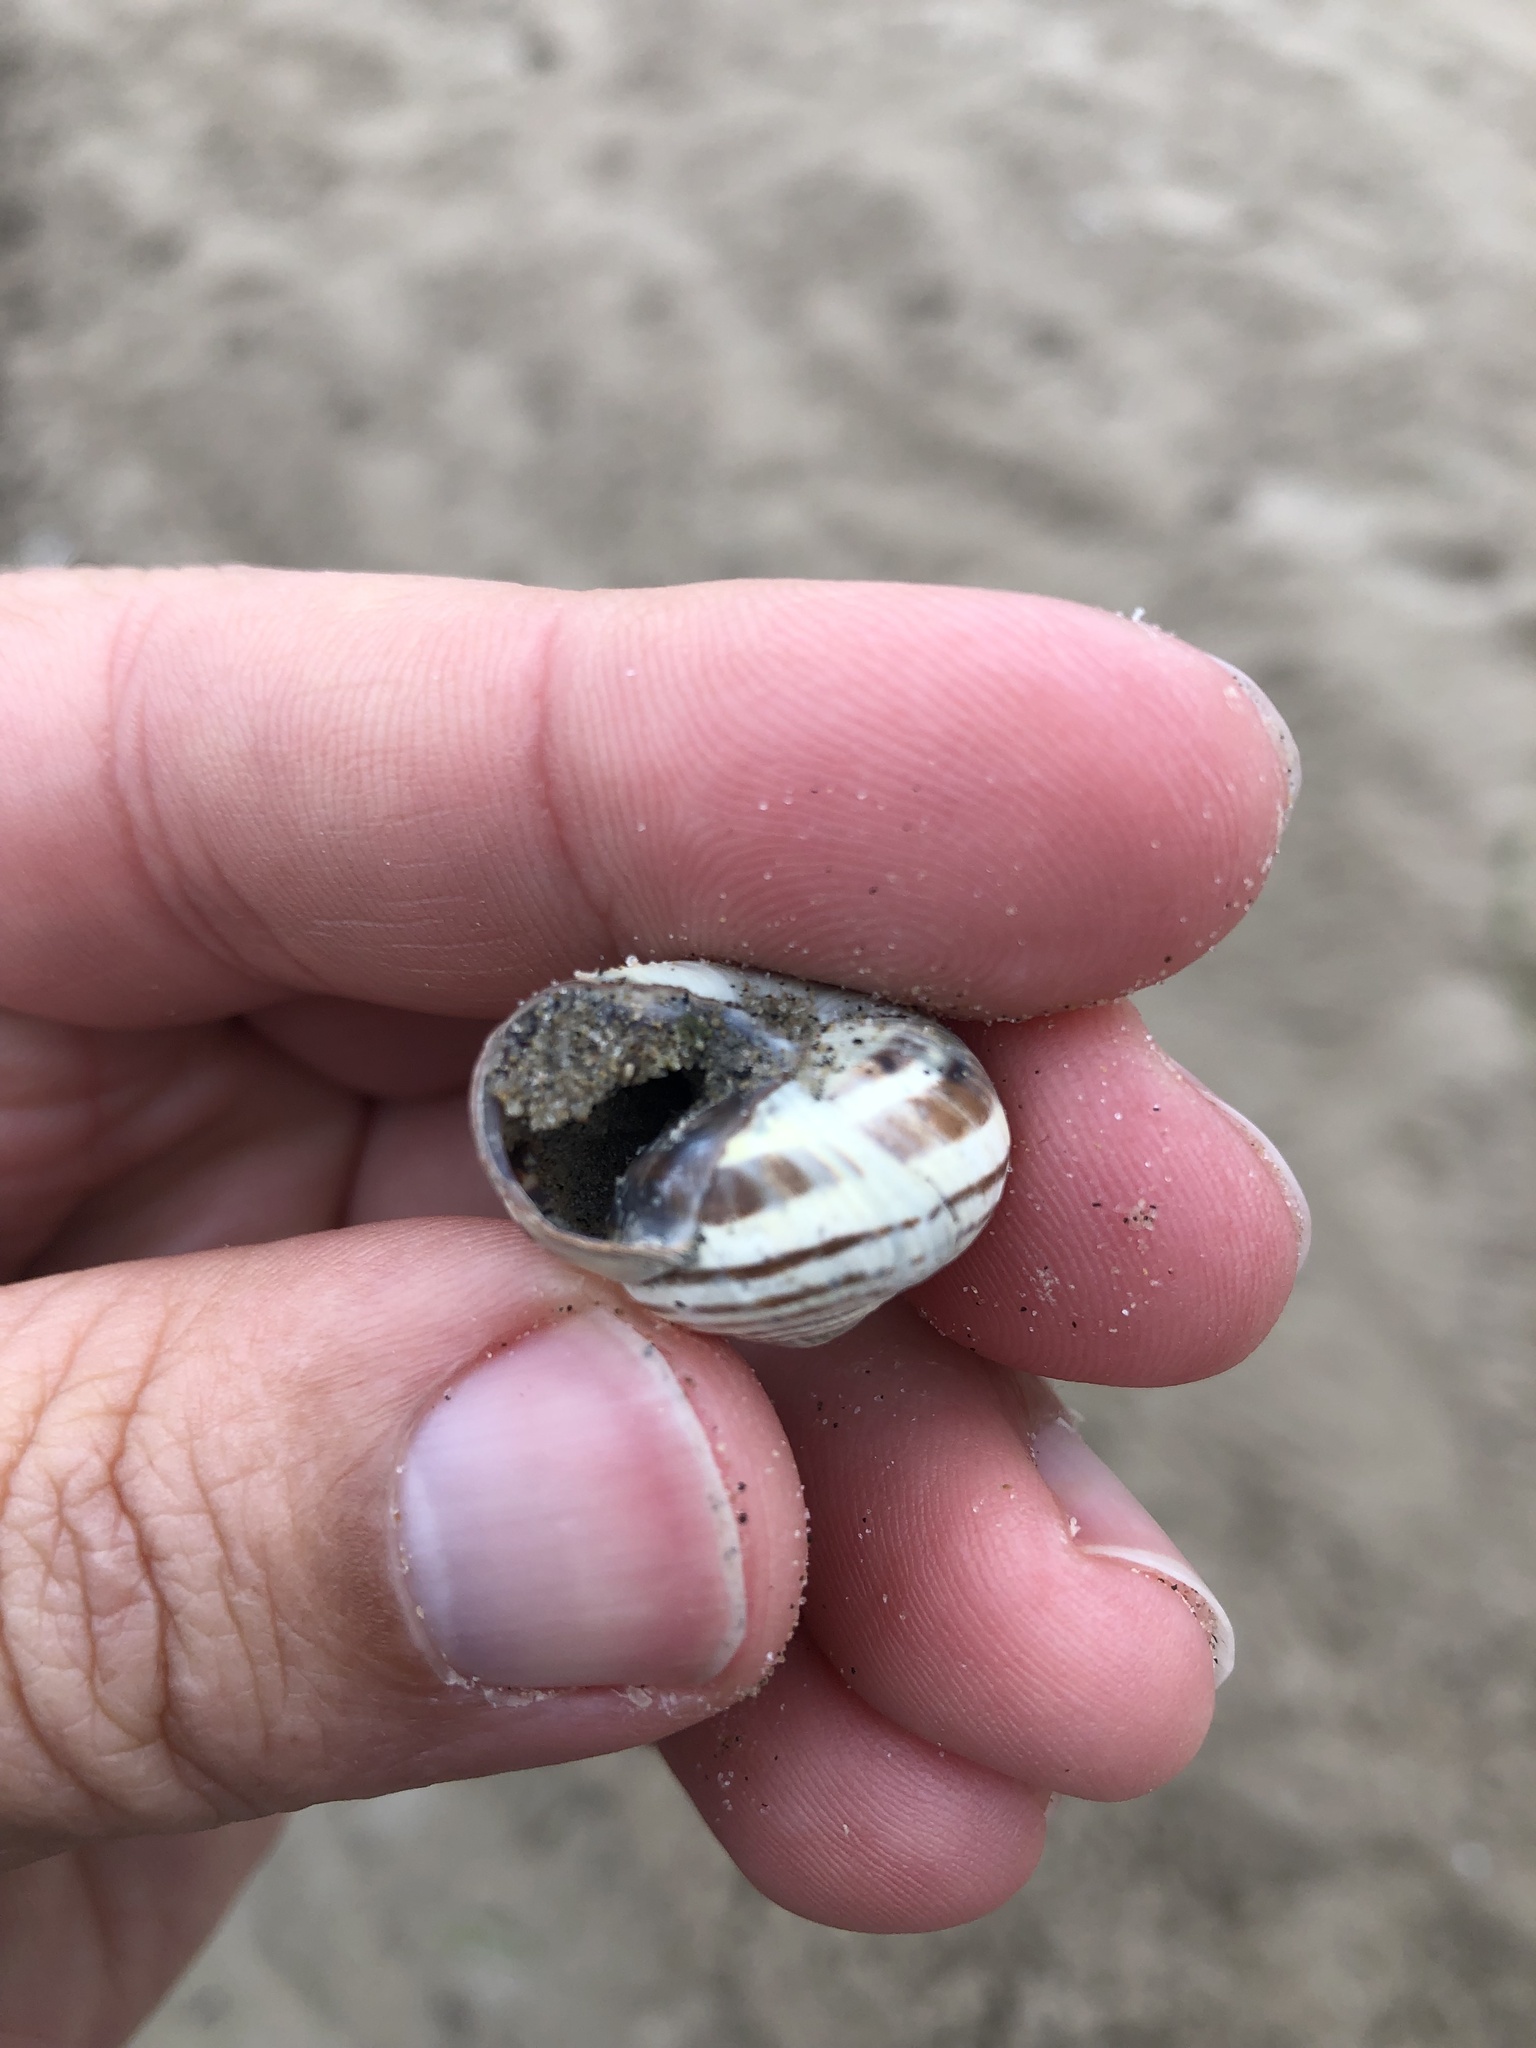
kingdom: Animalia
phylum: Mollusca
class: Gastropoda
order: Stylommatophora
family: Helicidae
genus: Cepaea
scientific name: Cepaea nemoralis
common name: Grovesnail
